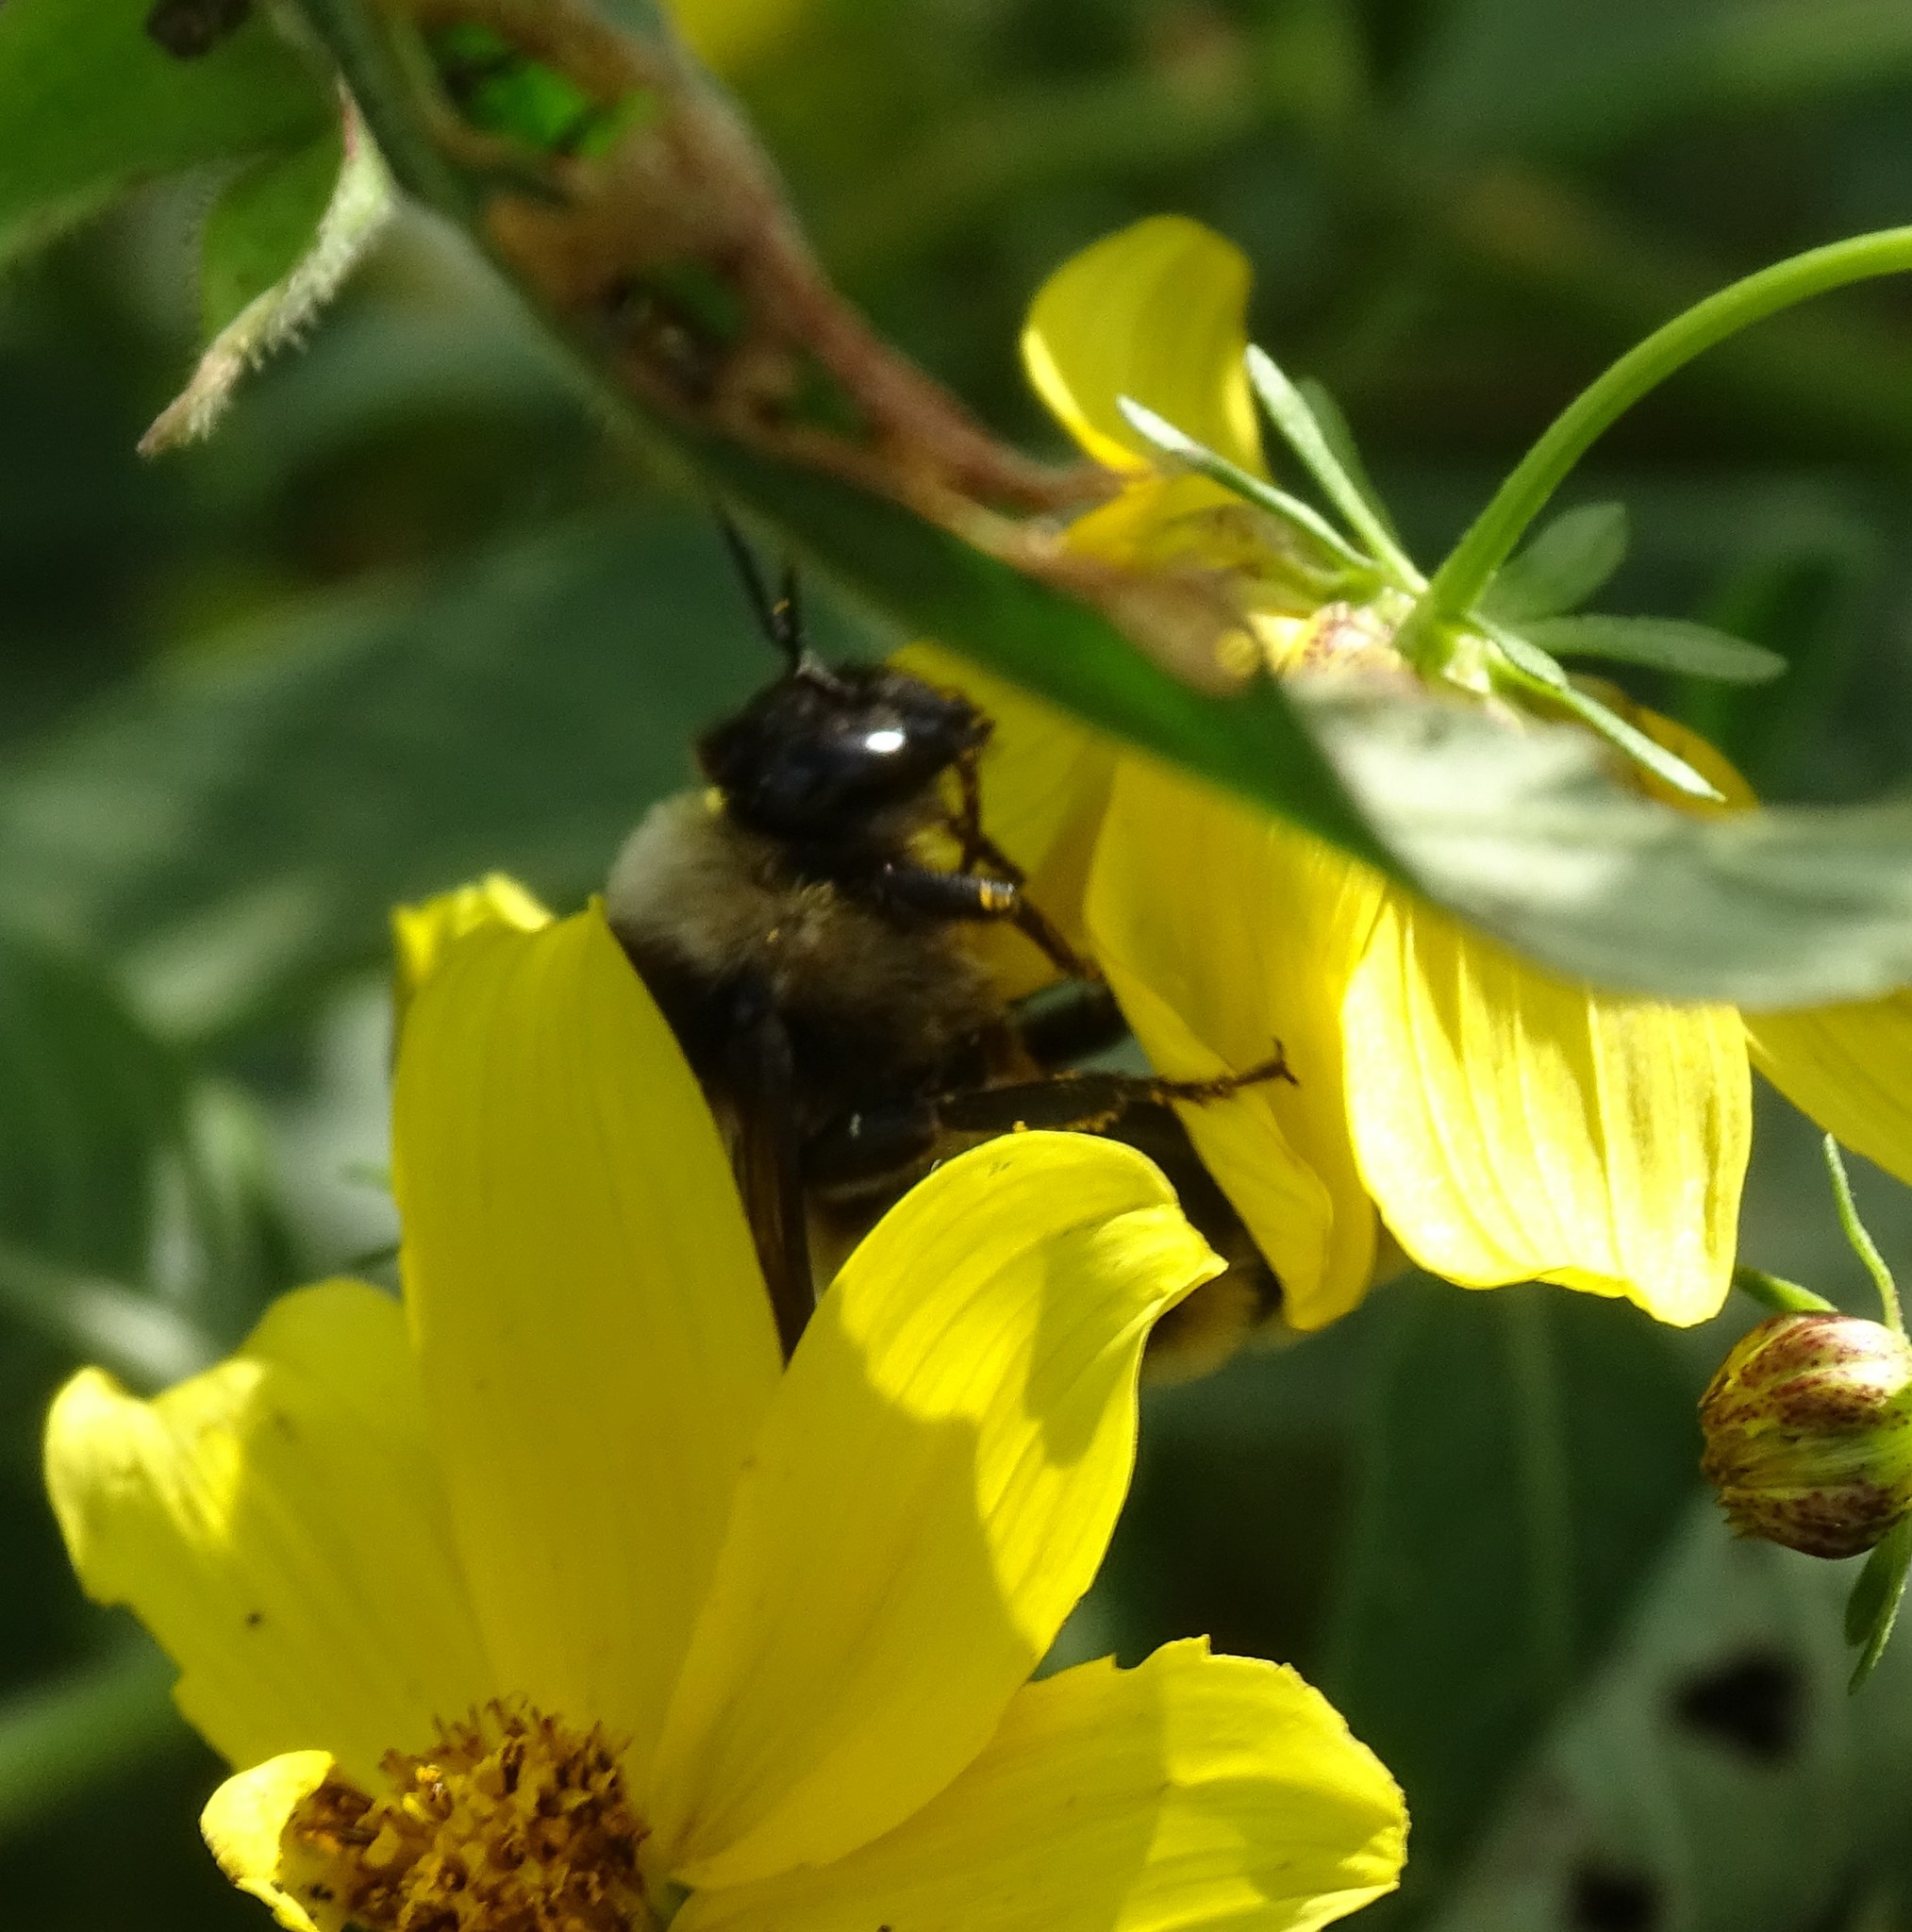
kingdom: Animalia
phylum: Arthropoda
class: Insecta
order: Hymenoptera
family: Apidae
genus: Bombus
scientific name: Bombus pensylvanicus
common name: Bumble bee
